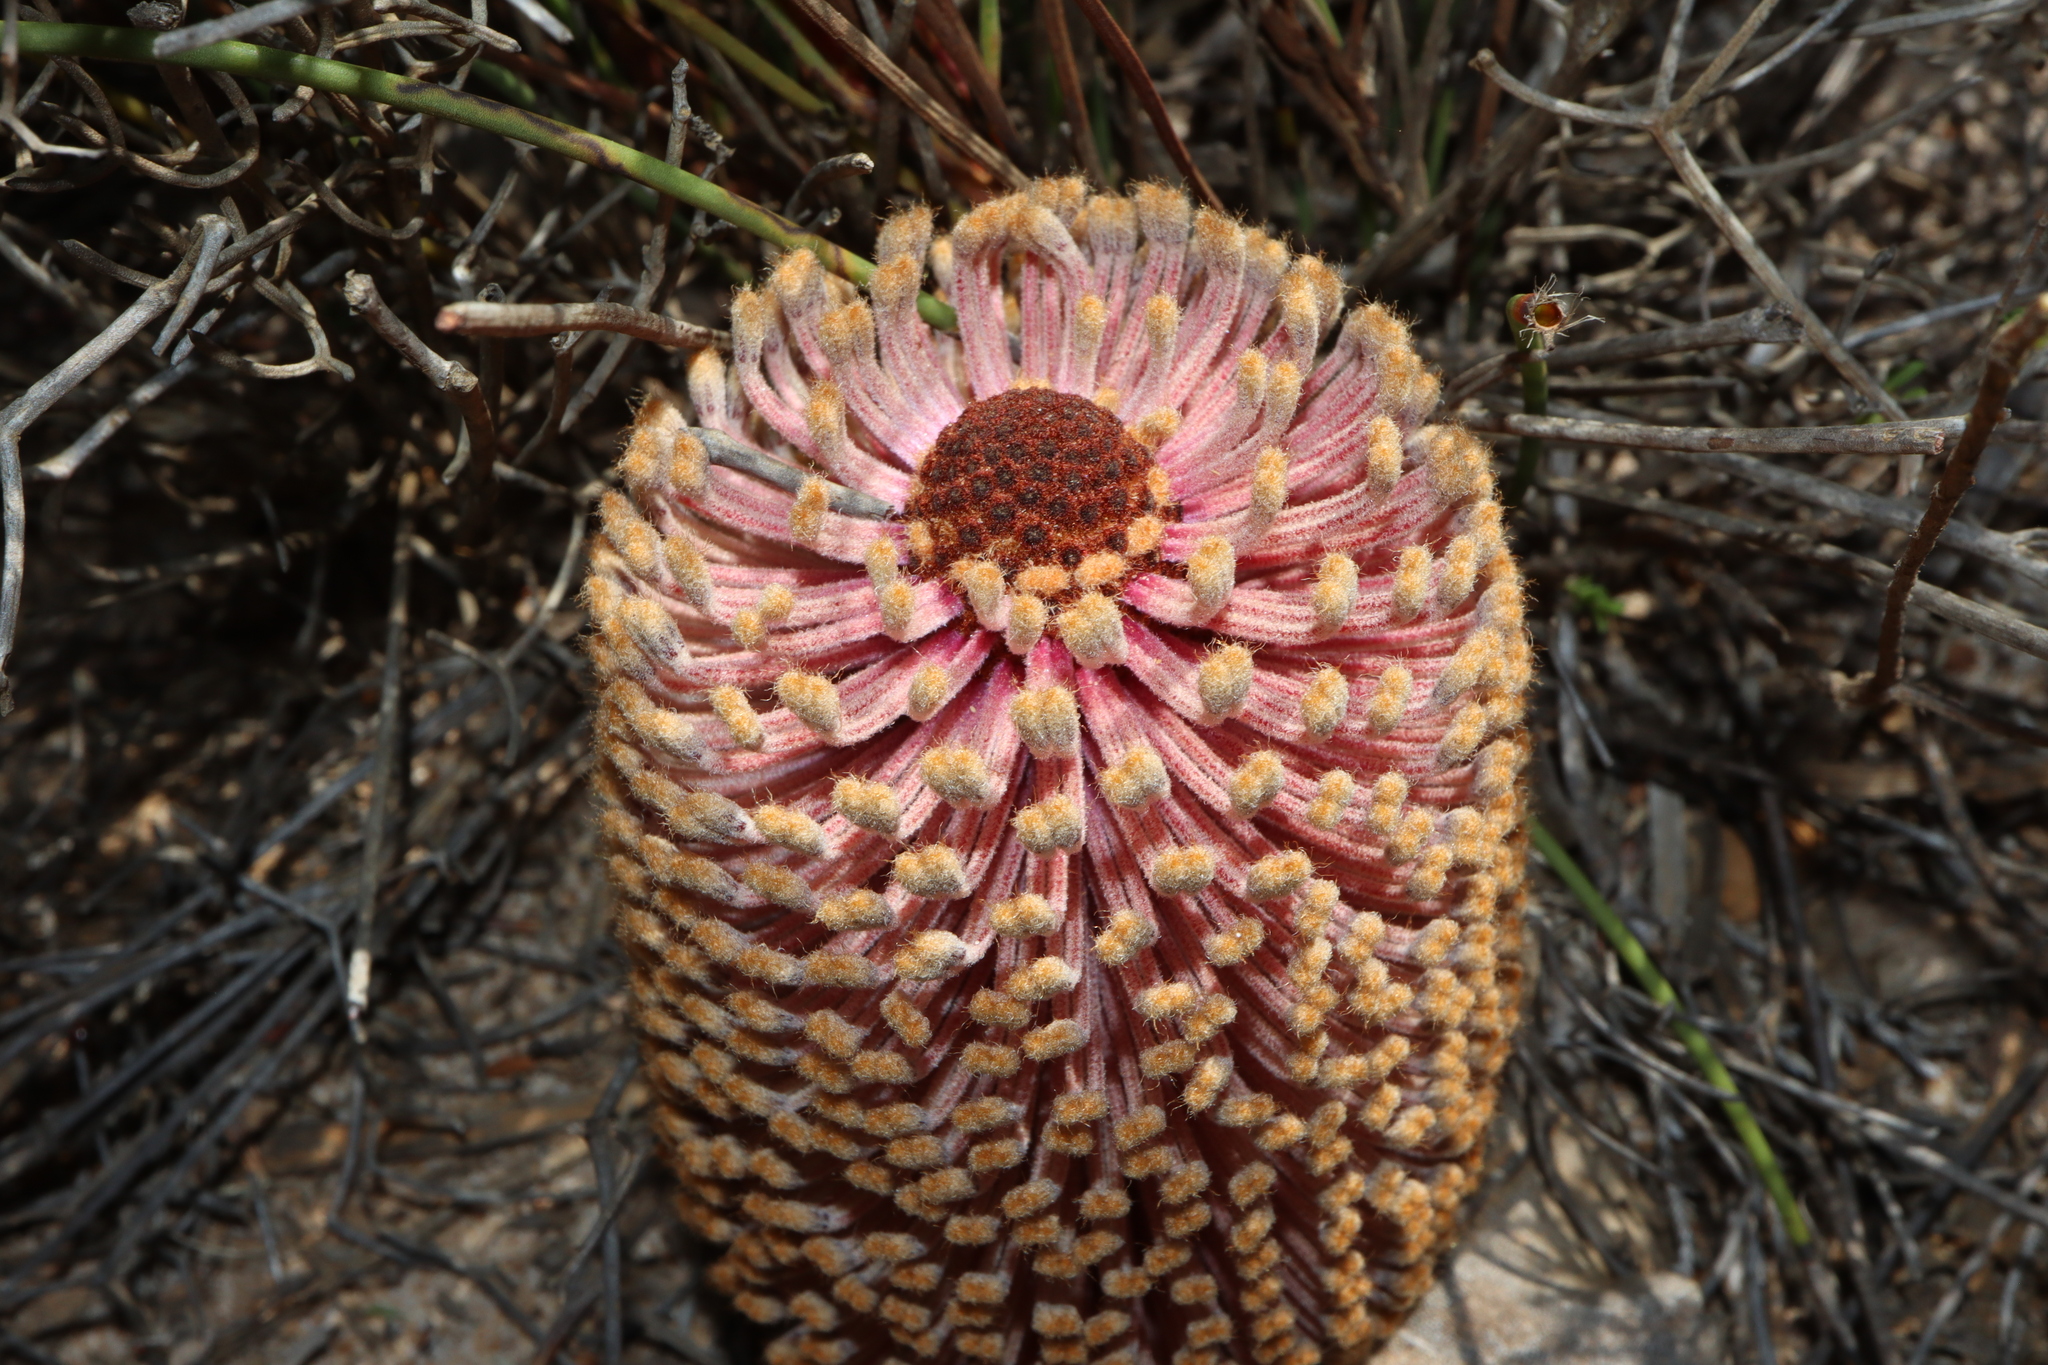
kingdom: Plantae
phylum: Tracheophyta
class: Magnoliopsida
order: Proteales
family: Proteaceae
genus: Banksia
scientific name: Banksia repens
